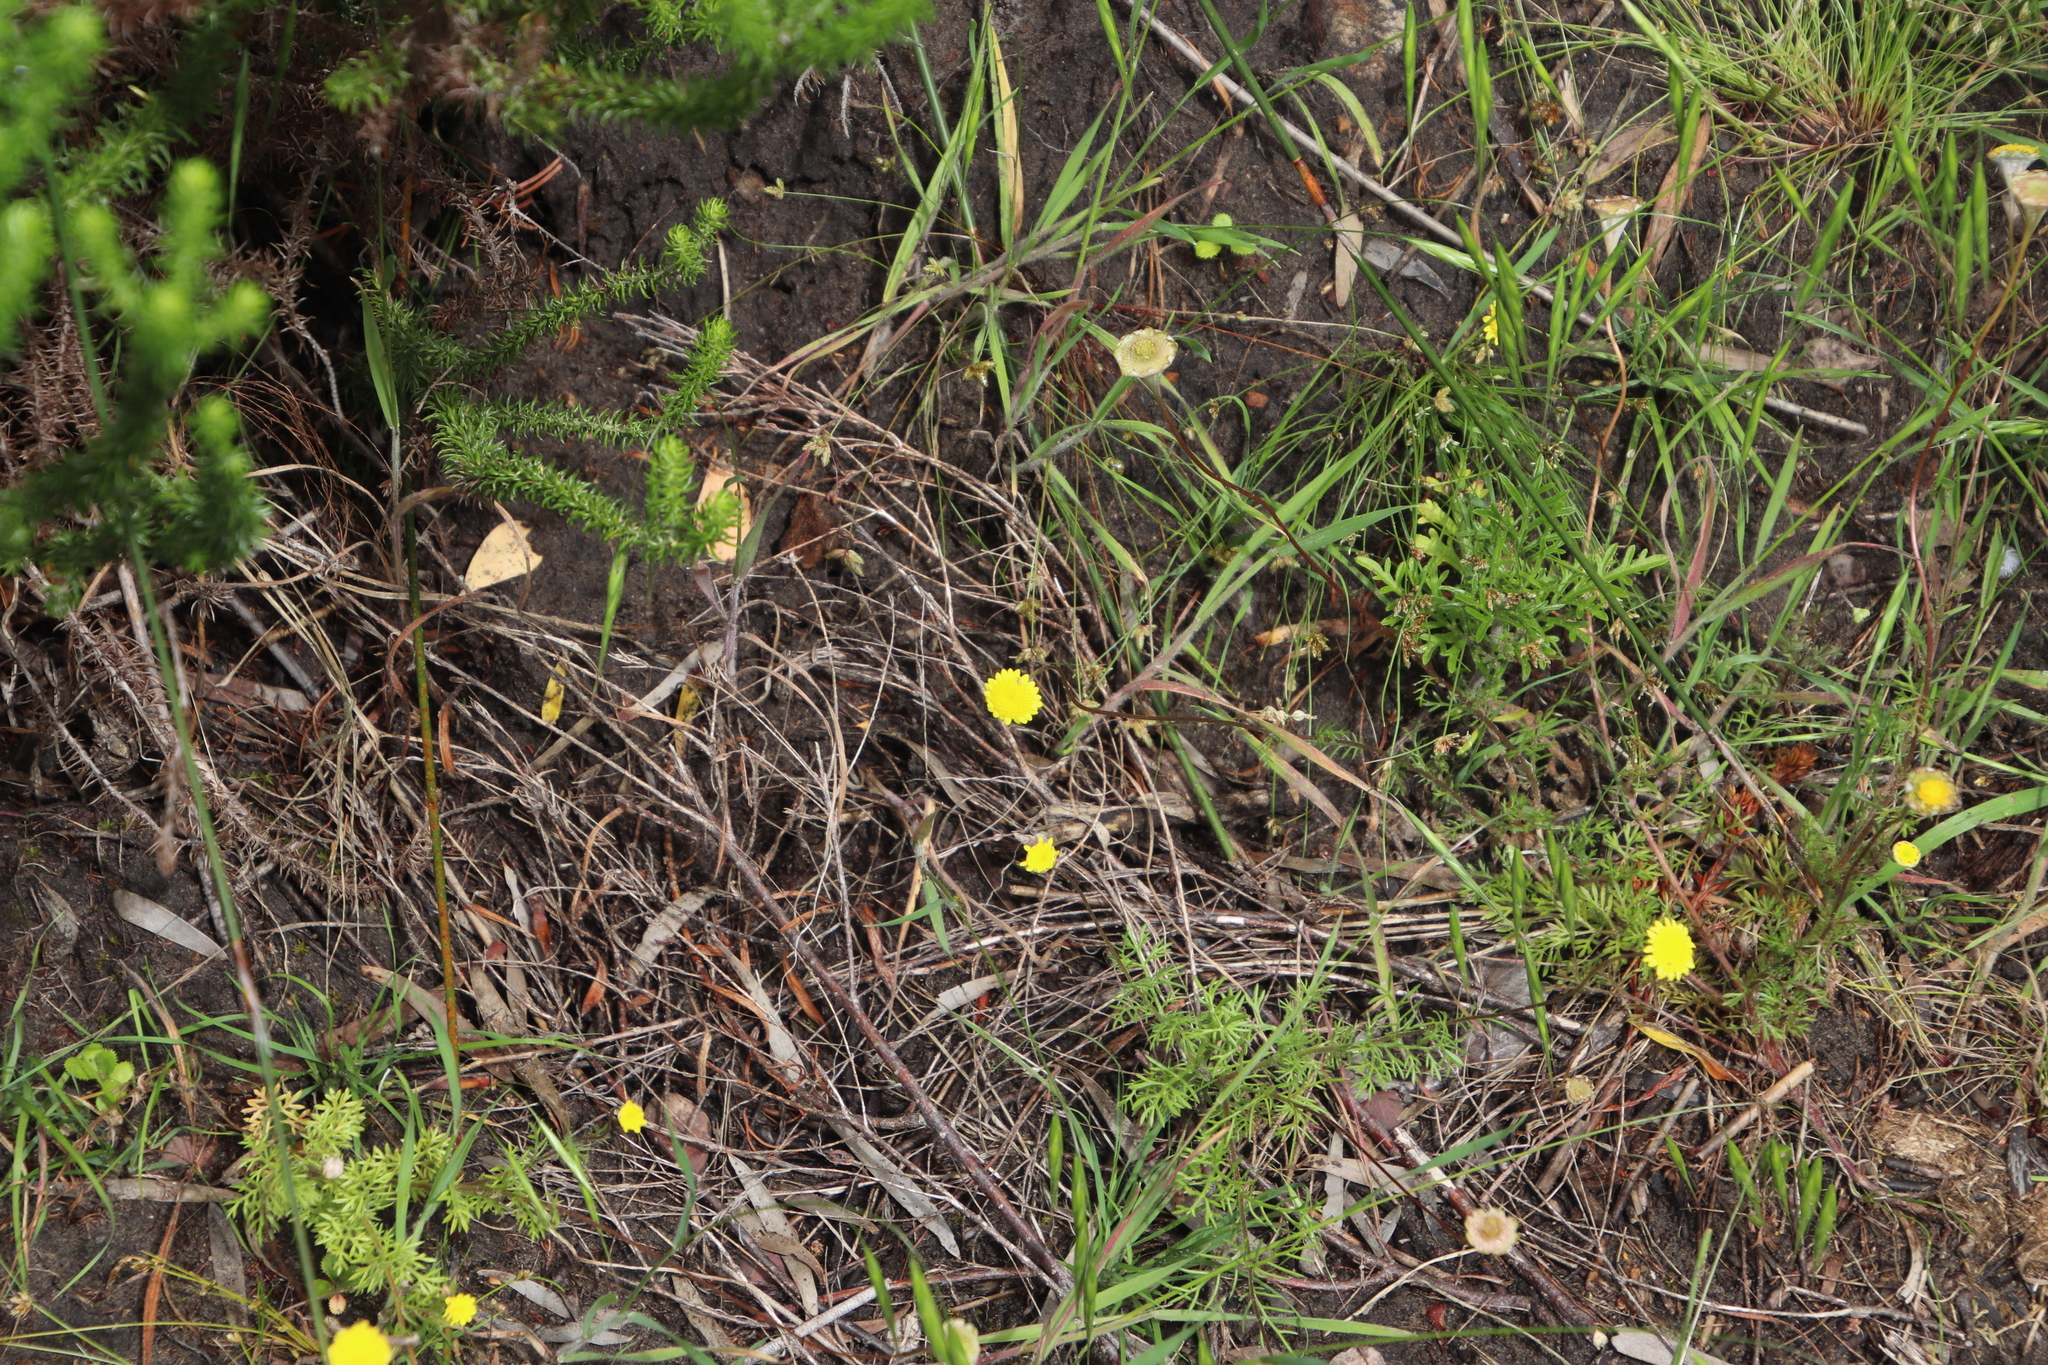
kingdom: Plantae
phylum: Tracheophyta
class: Magnoliopsida
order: Asterales
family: Asteraceae
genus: Cotula
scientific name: Cotula pruinosa
